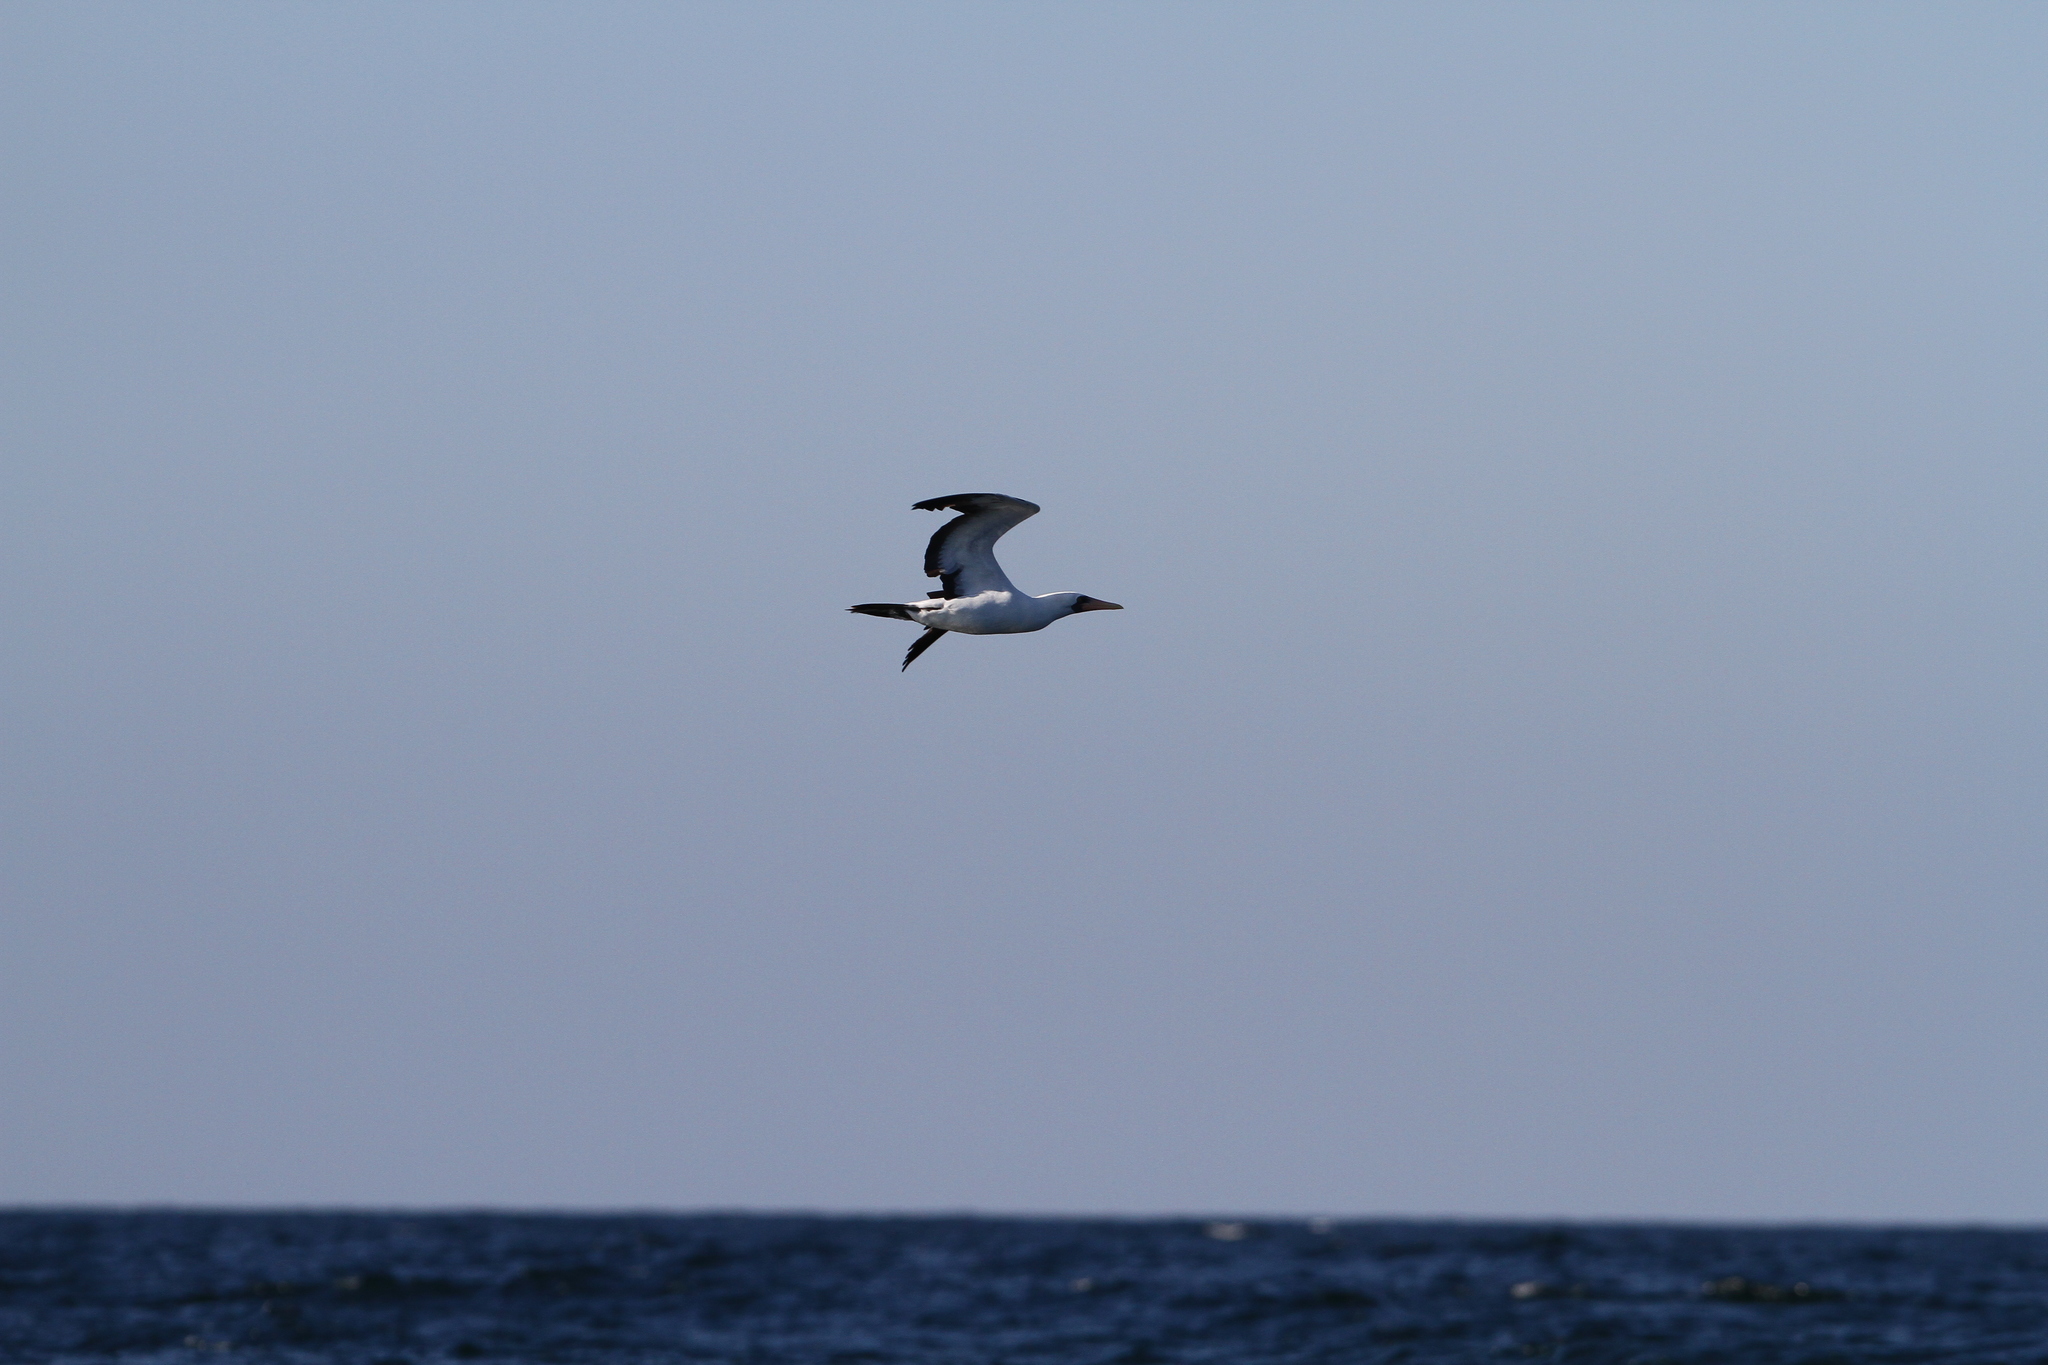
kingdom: Animalia
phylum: Chordata
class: Aves
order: Suliformes
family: Sulidae
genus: Sula
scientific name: Sula granti
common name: Nazca booby
